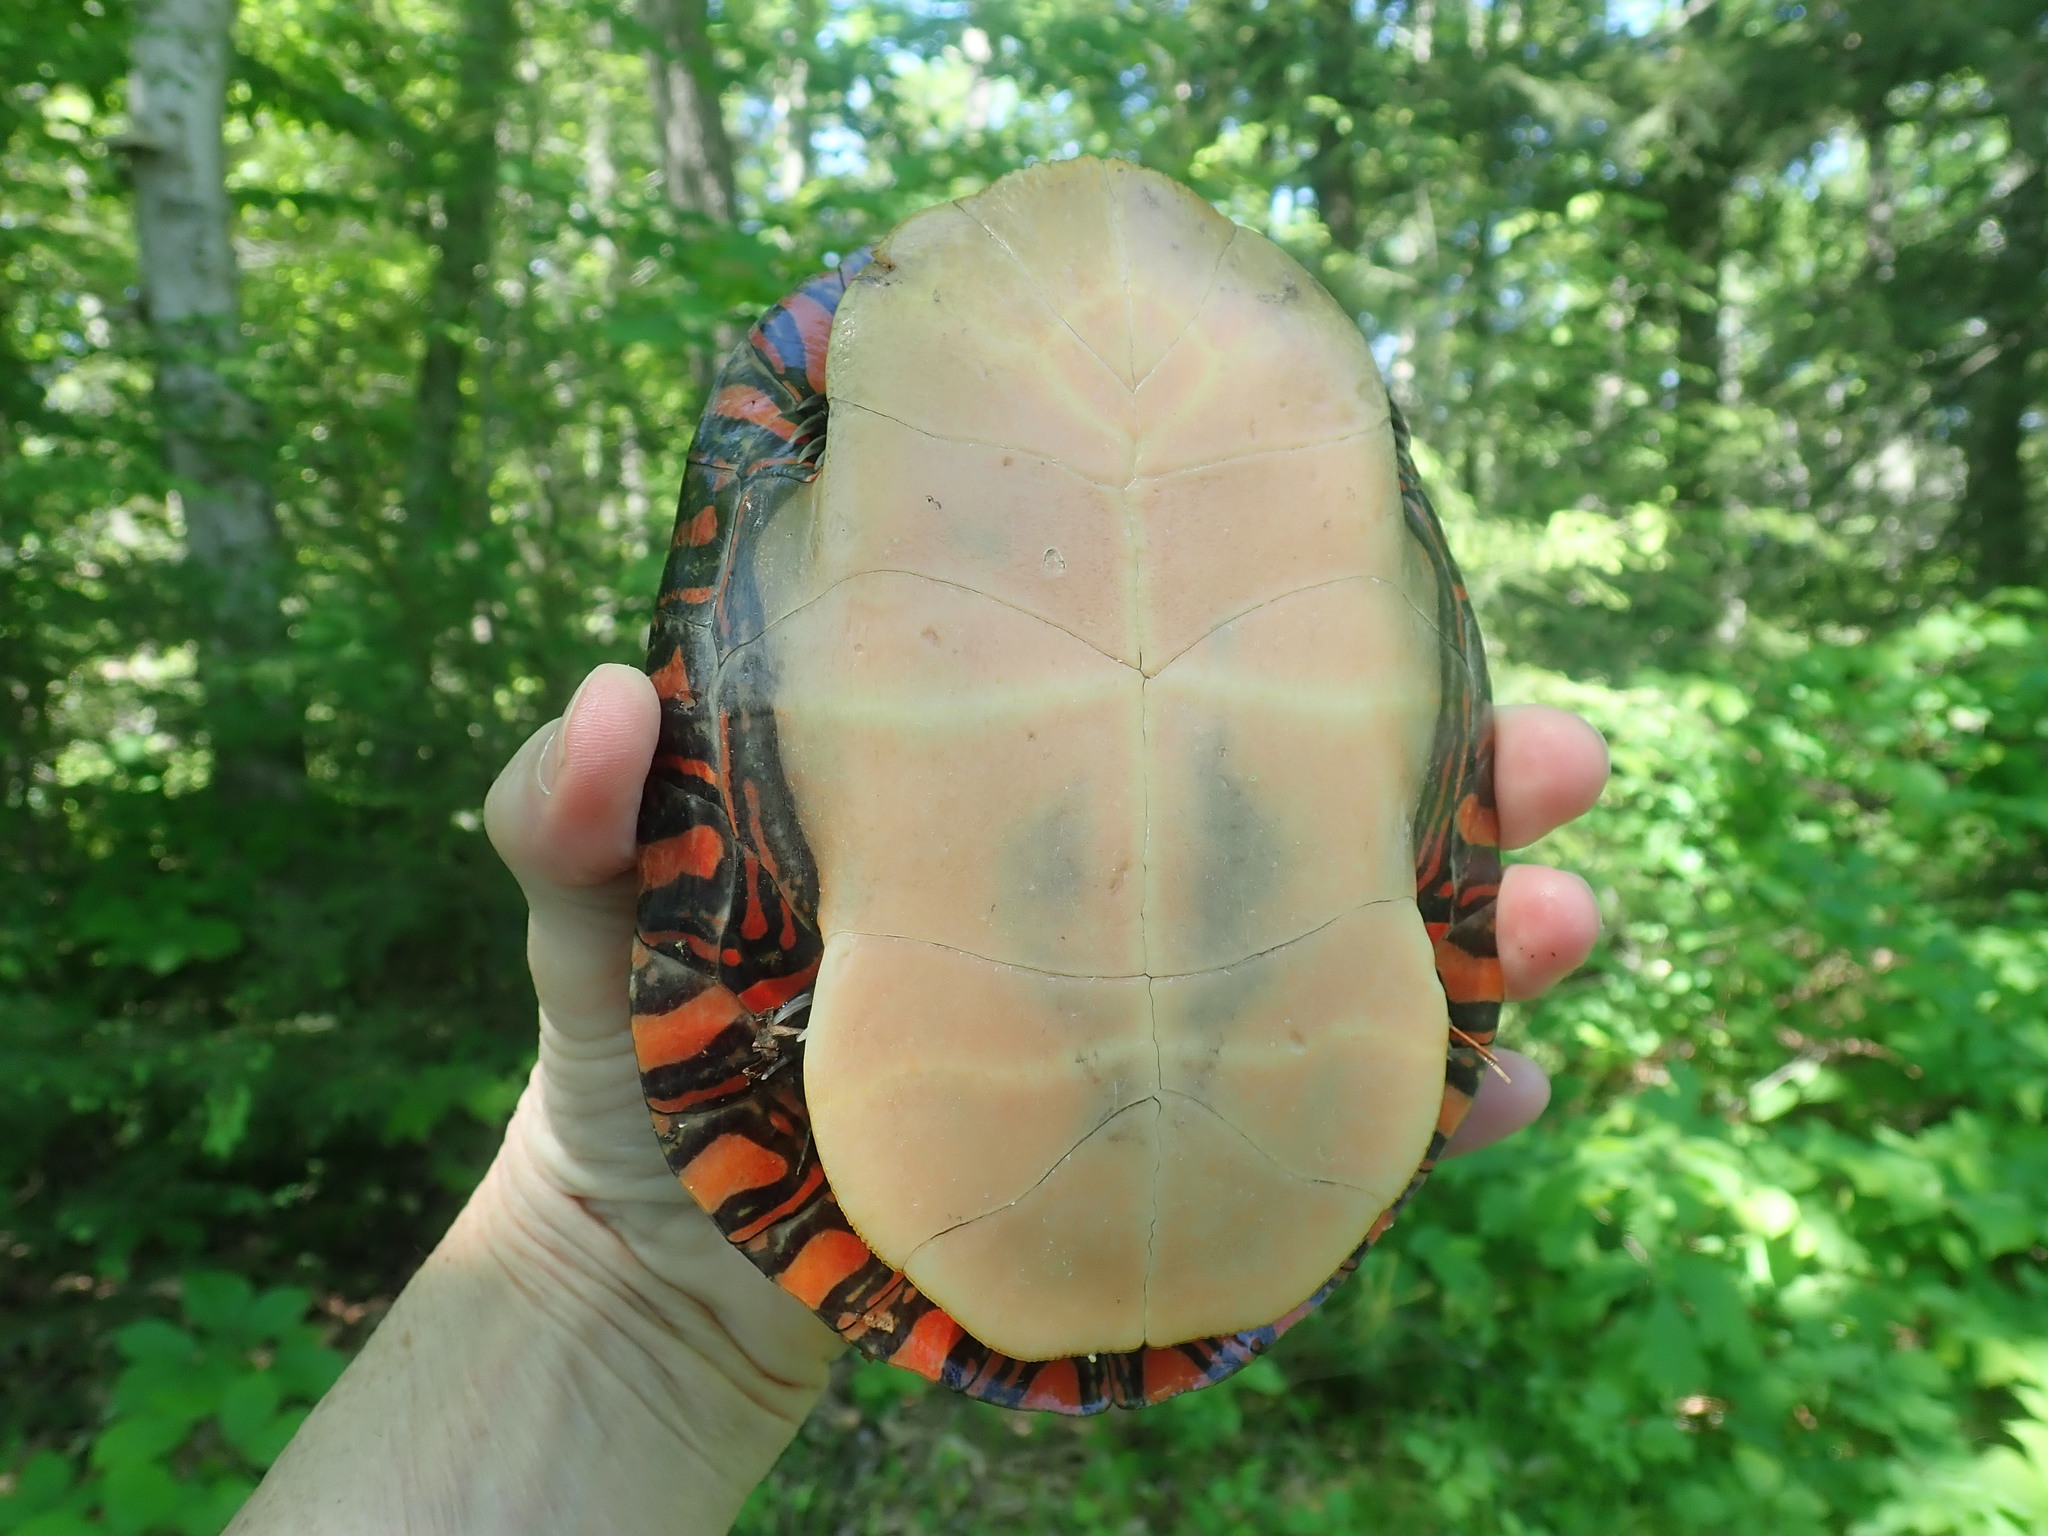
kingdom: Animalia
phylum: Chordata
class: Testudines
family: Emydidae
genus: Chrysemys
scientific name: Chrysemys picta
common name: Painted turtle
